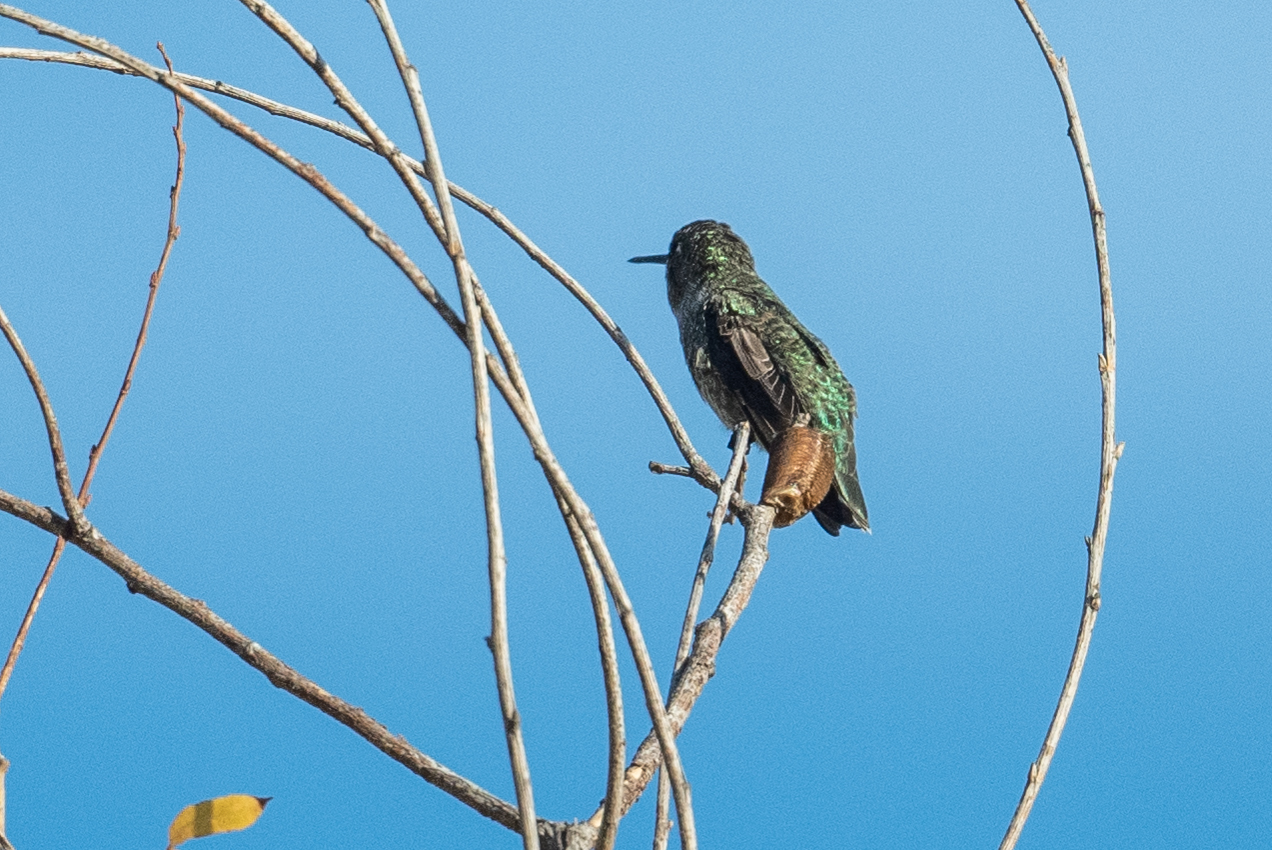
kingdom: Animalia
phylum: Chordata
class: Aves
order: Apodiformes
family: Trochilidae
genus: Calypte
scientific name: Calypte anna
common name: Anna's hummingbird
